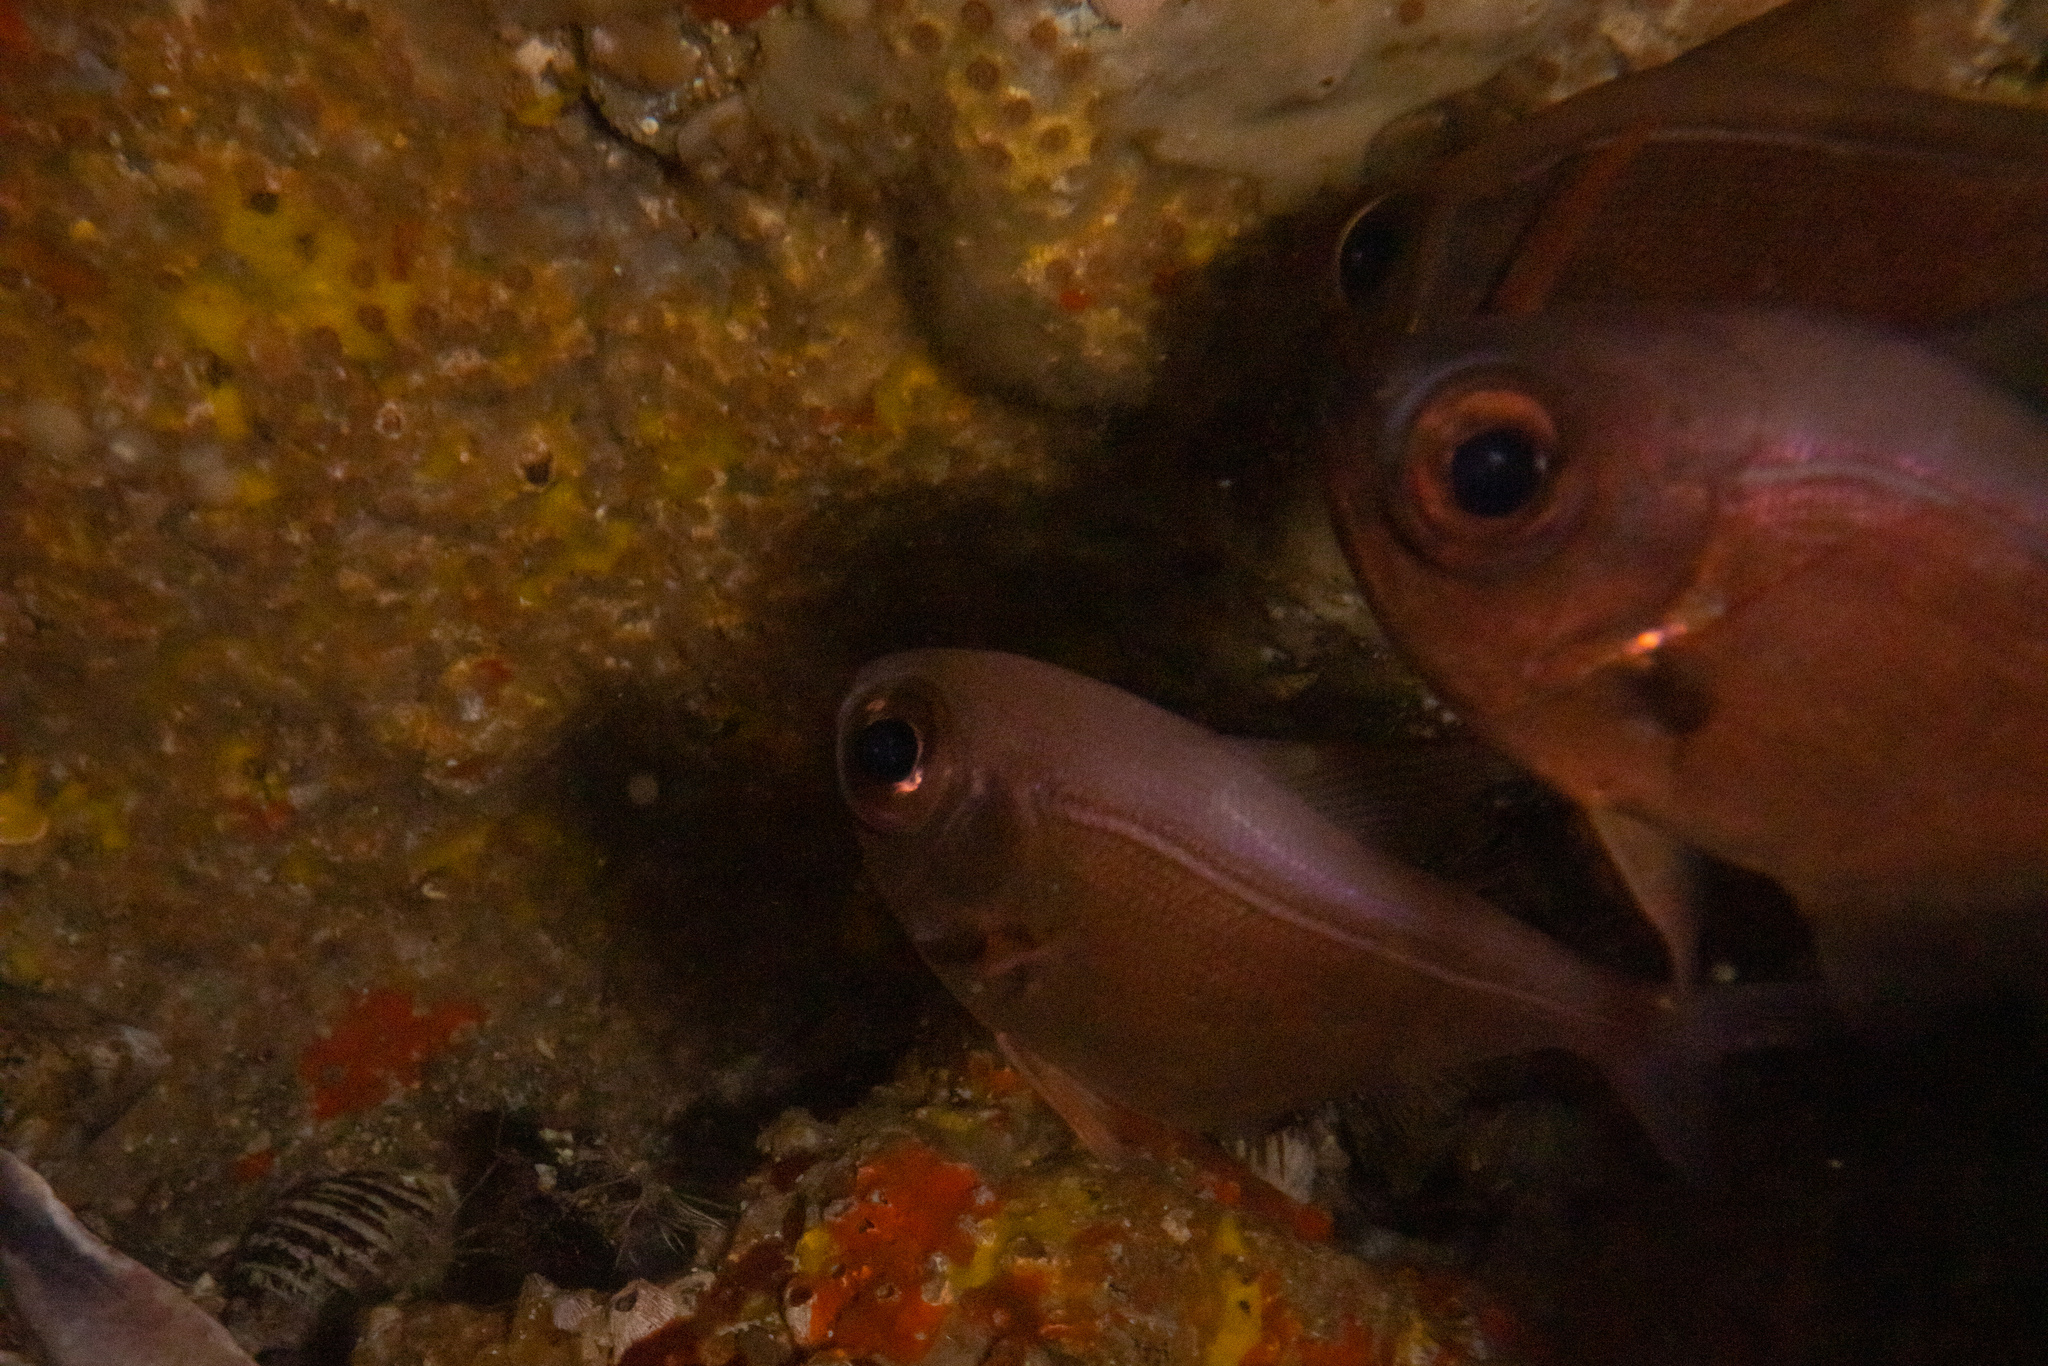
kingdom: Animalia
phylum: Chordata
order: Perciformes
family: Pempheridae
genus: Pempheris
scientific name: Pempheris adspersa
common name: Bigeye
